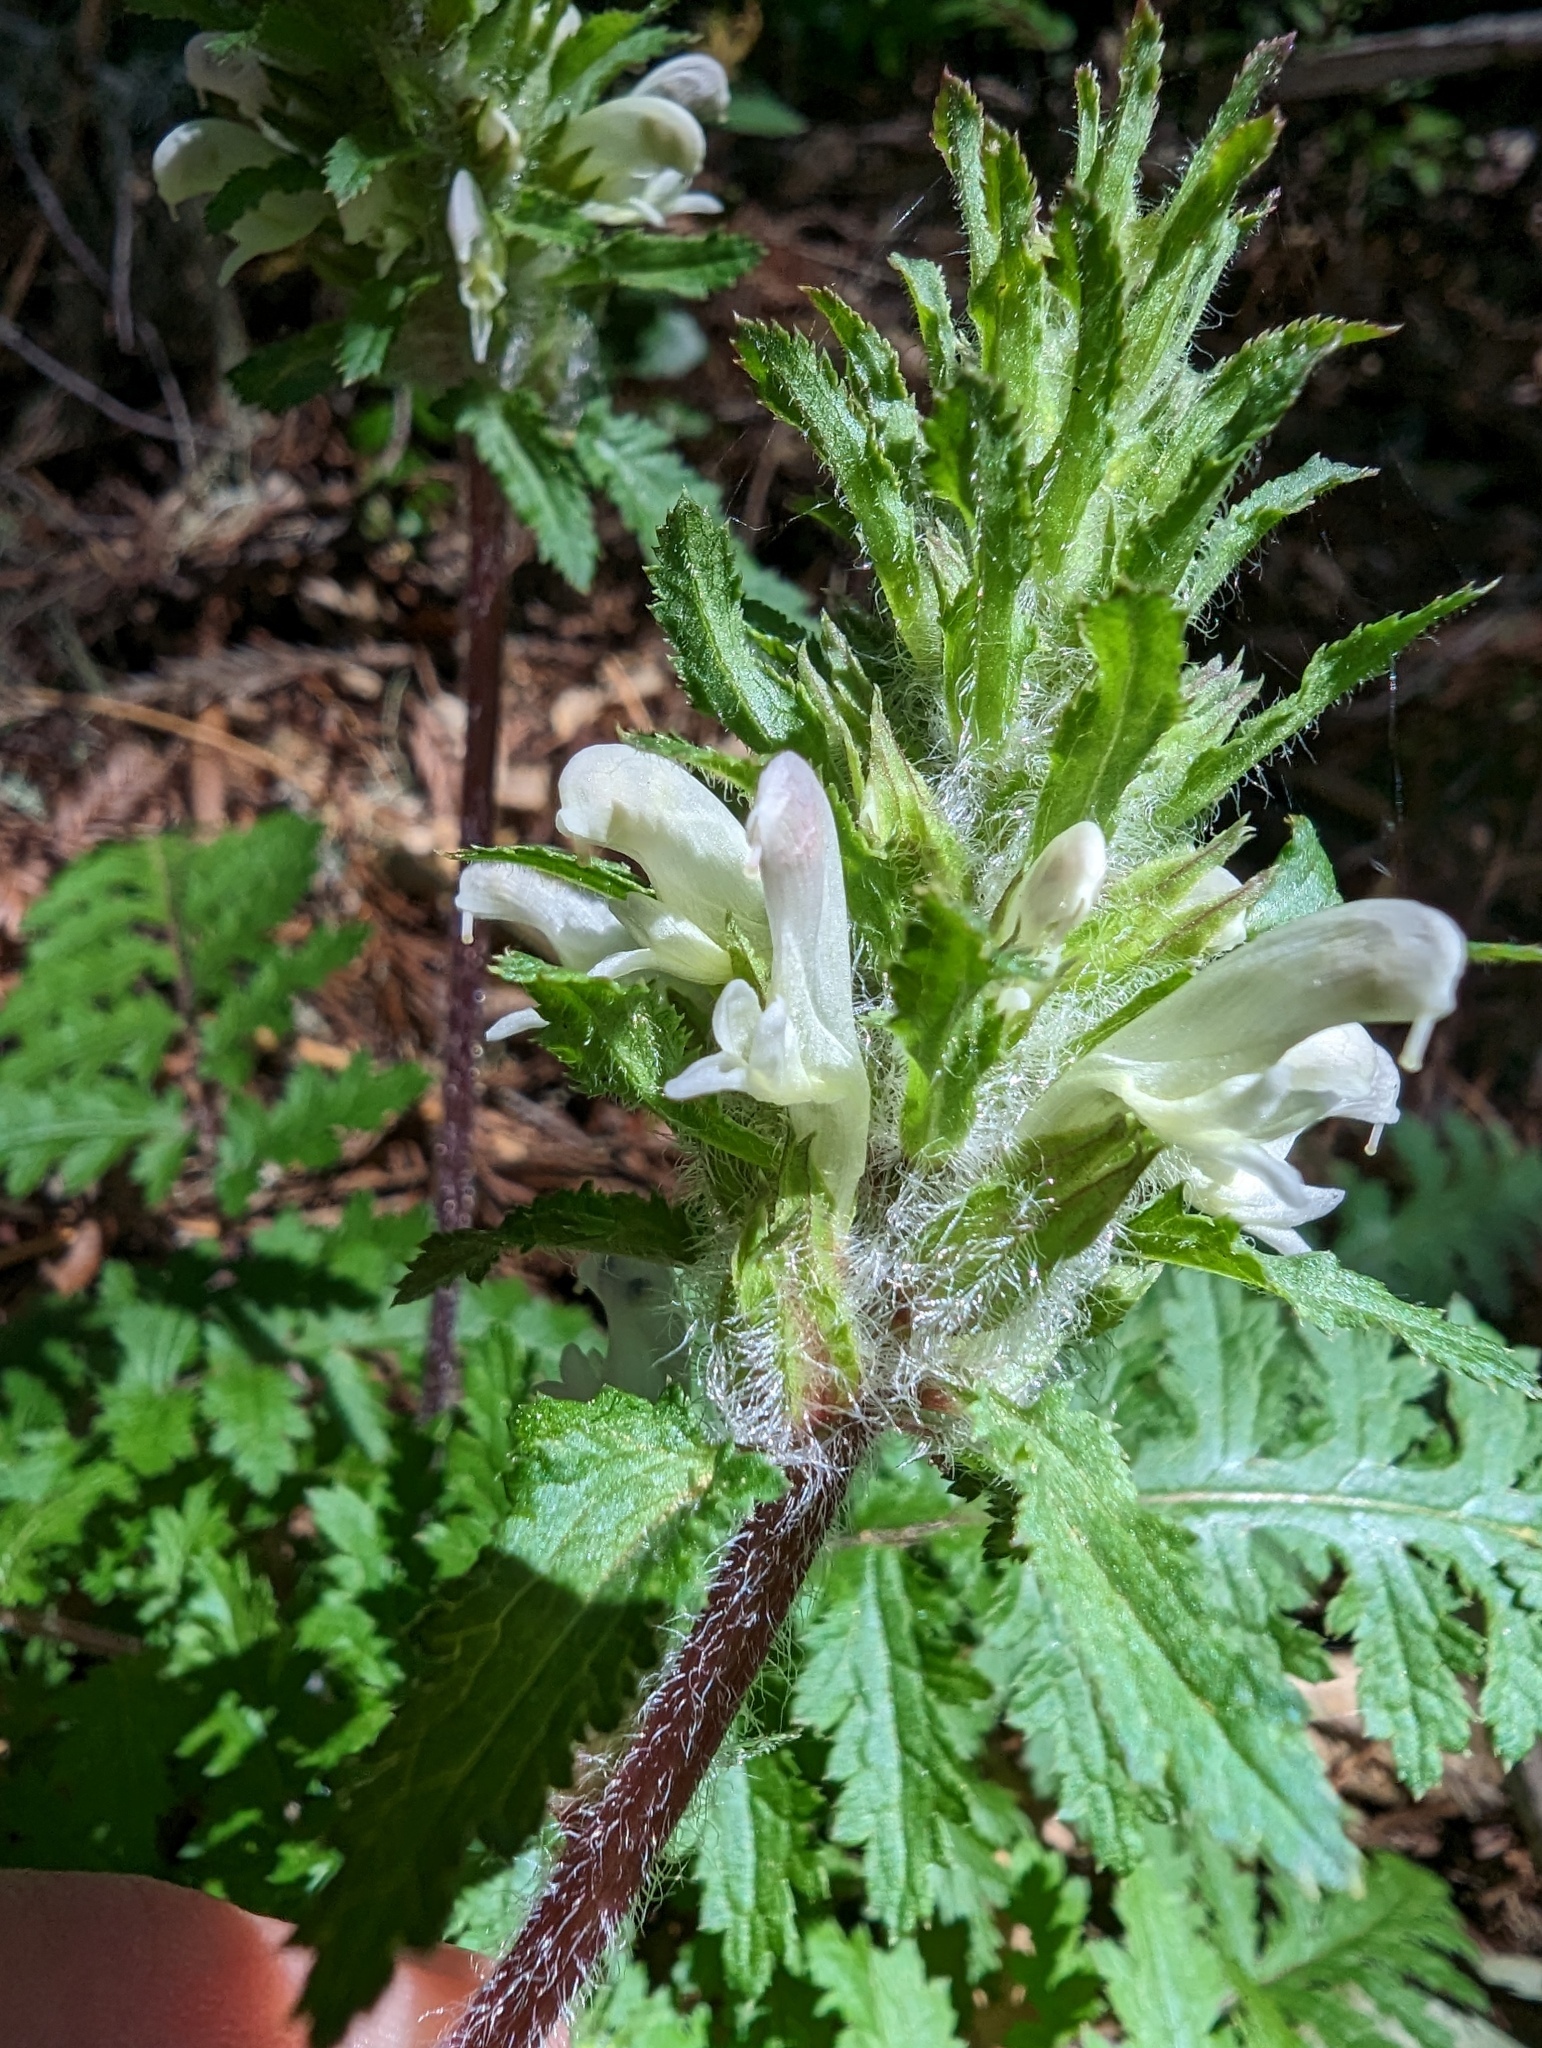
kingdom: Plantae
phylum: Tracheophyta
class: Magnoliopsida
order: Lamiales
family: Orobanchaceae
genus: Pedicularis
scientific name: Pedicularis dudleyi
